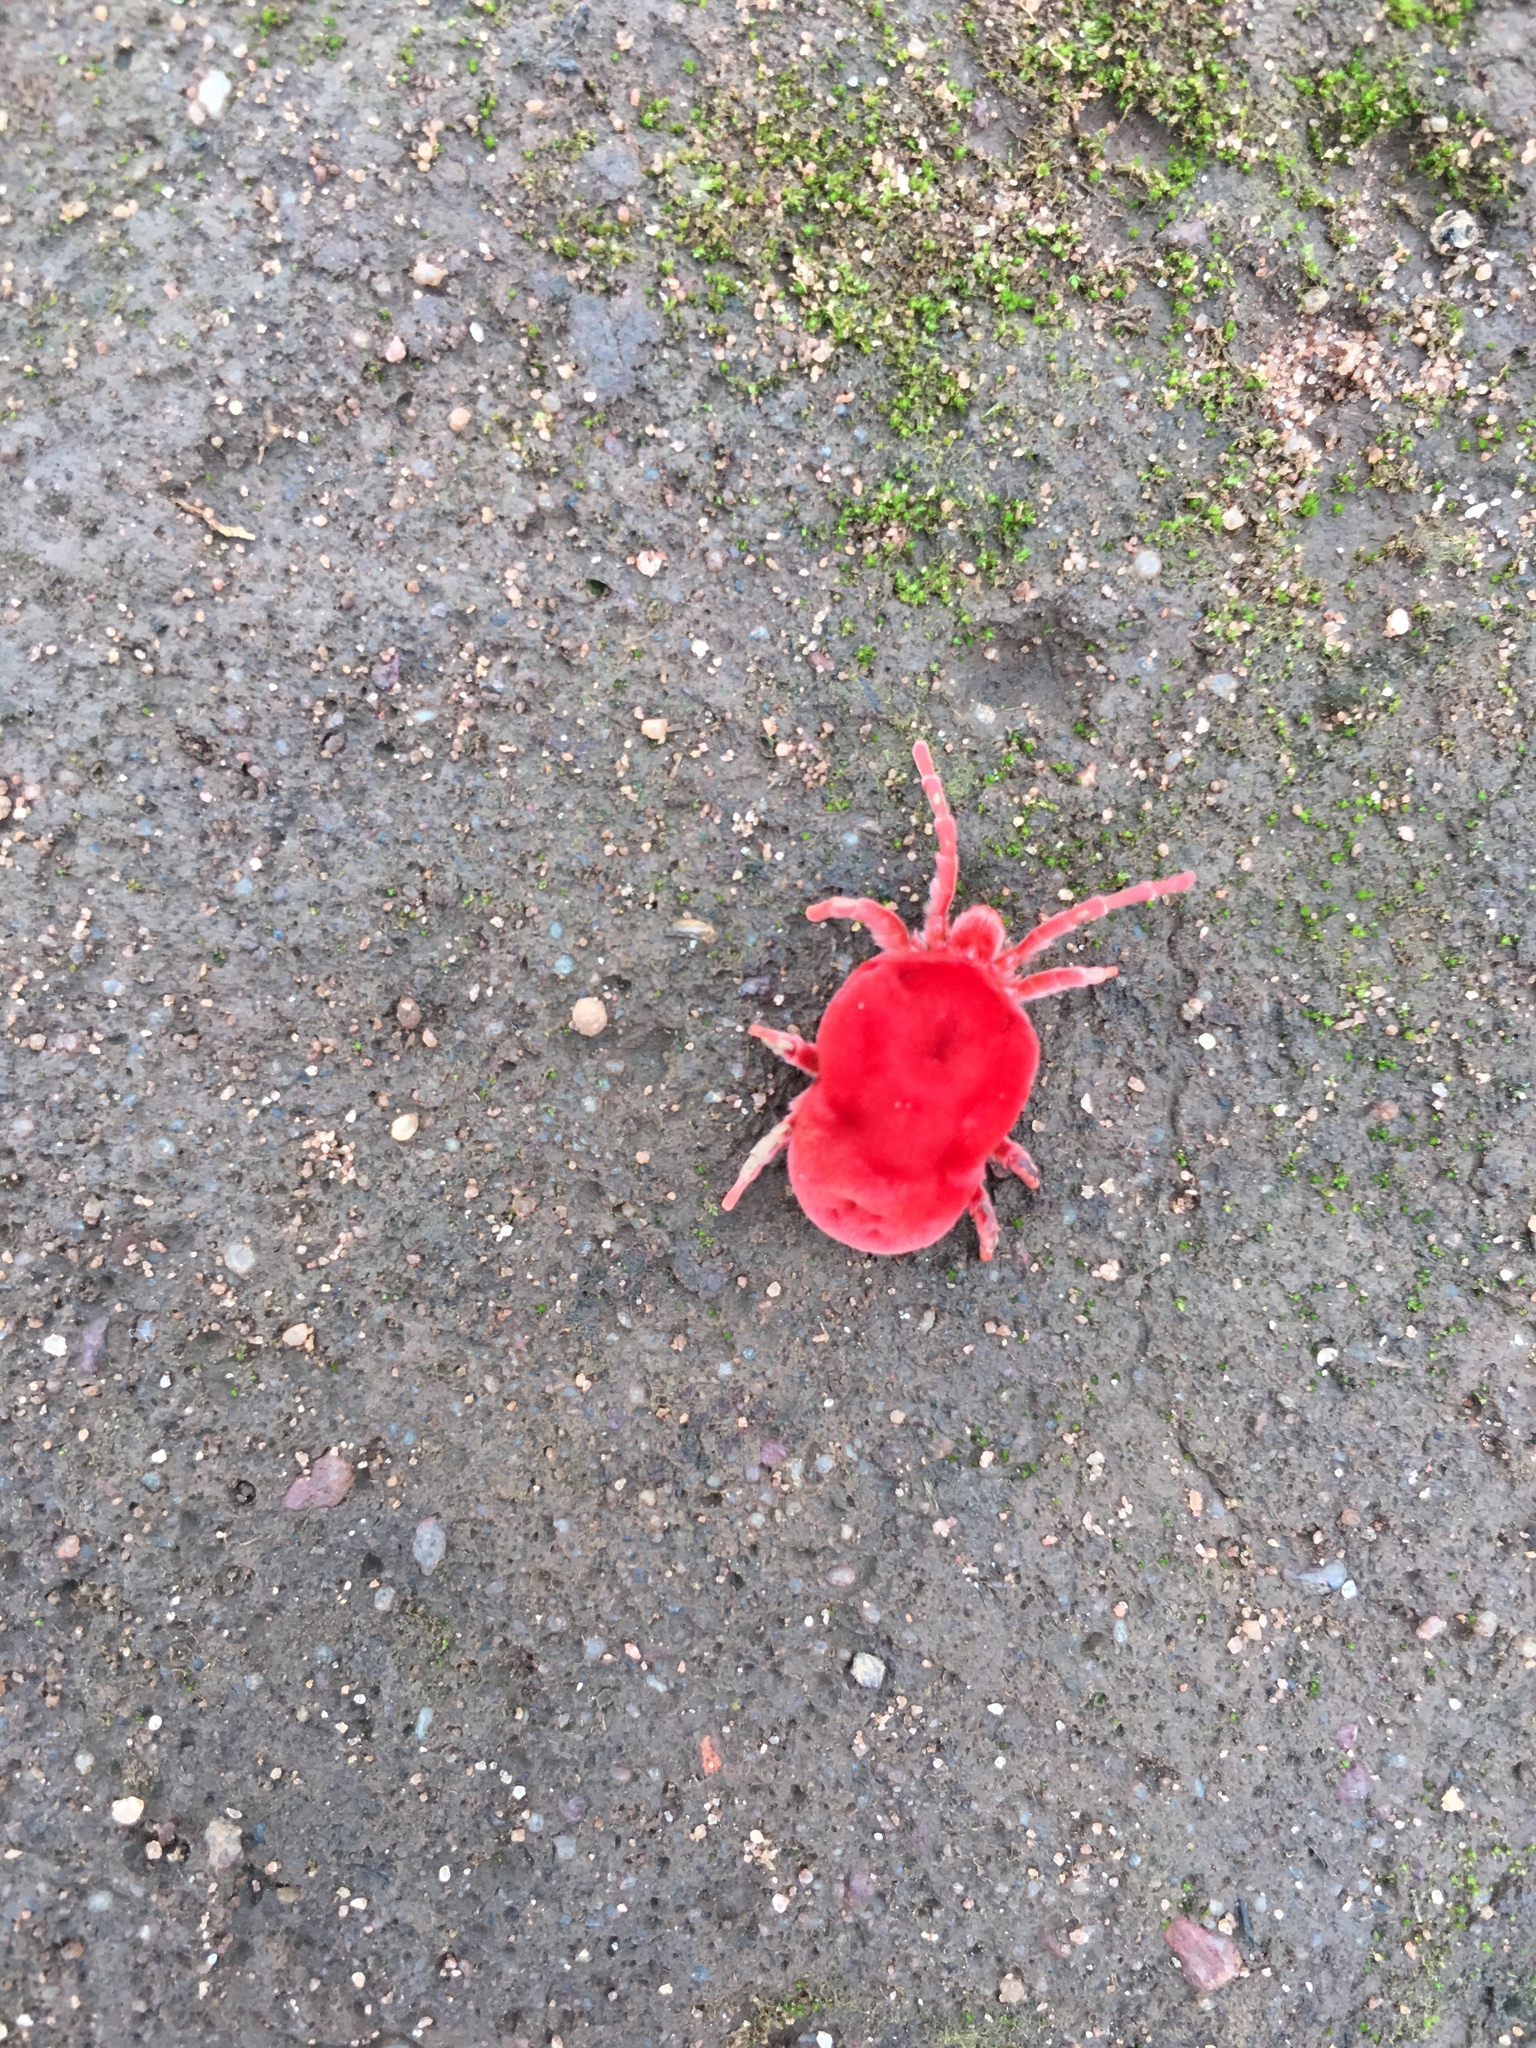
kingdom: Animalia
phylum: Arthropoda
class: Arachnida
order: Trombidiformes
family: Leeuwenhoekiidae
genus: Dinothrombium
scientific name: Dinothrombium
